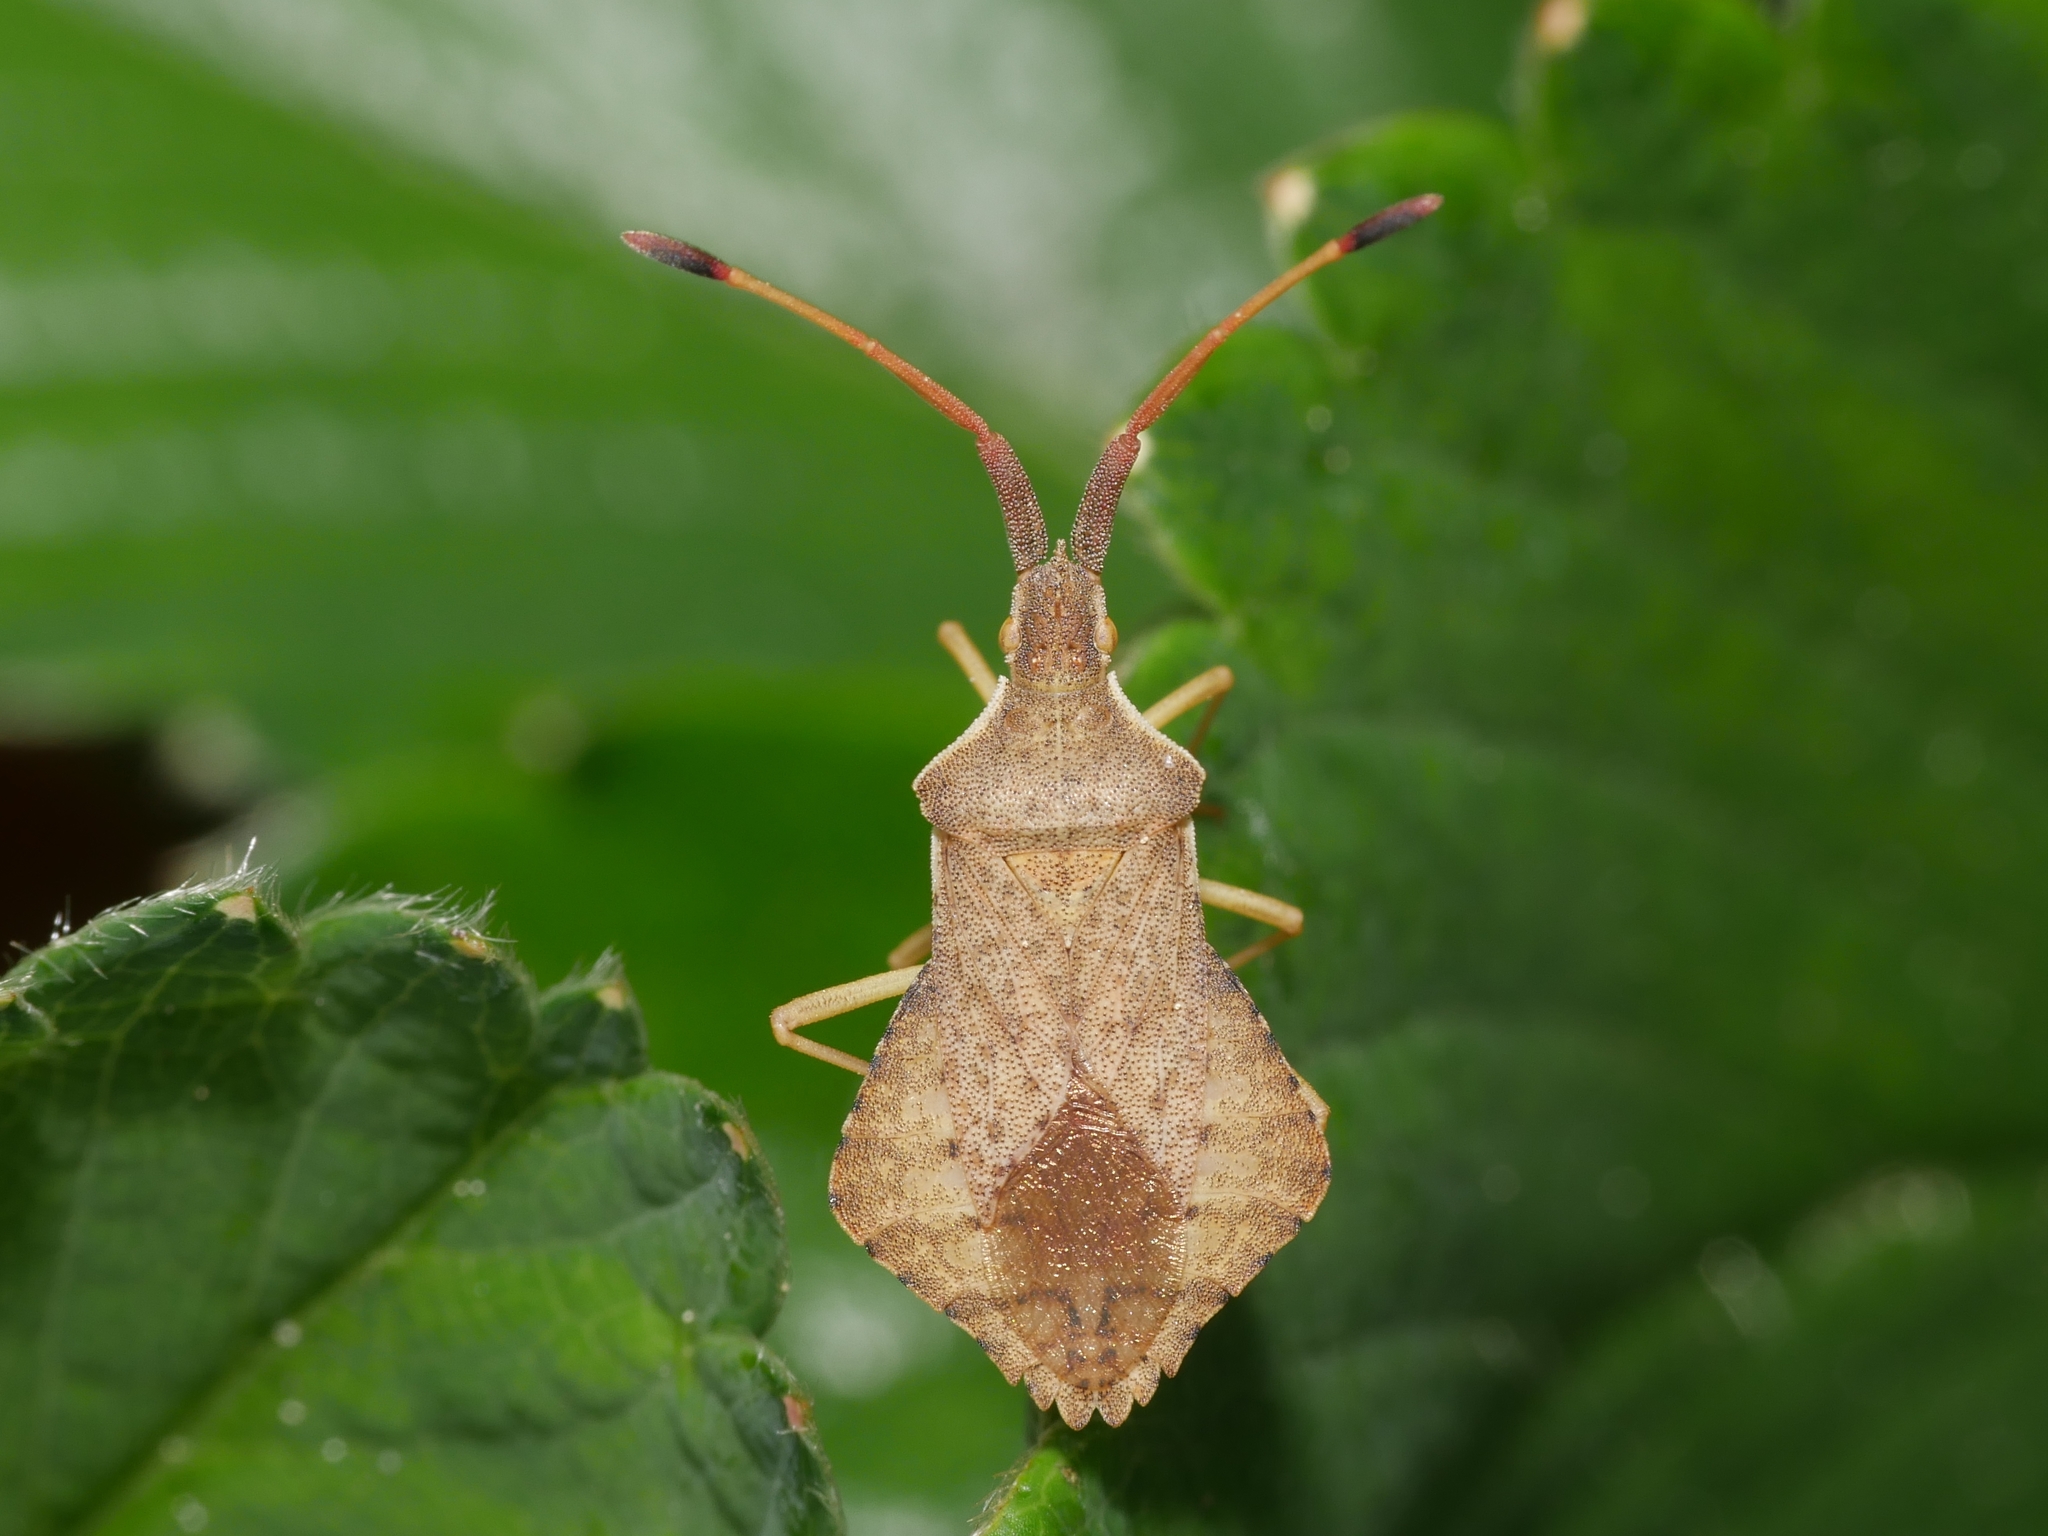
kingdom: Animalia
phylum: Arthropoda
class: Insecta
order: Hemiptera
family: Coreidae
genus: Syromastus
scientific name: Syromastus rhombeus
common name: Rhombic leatherbug
